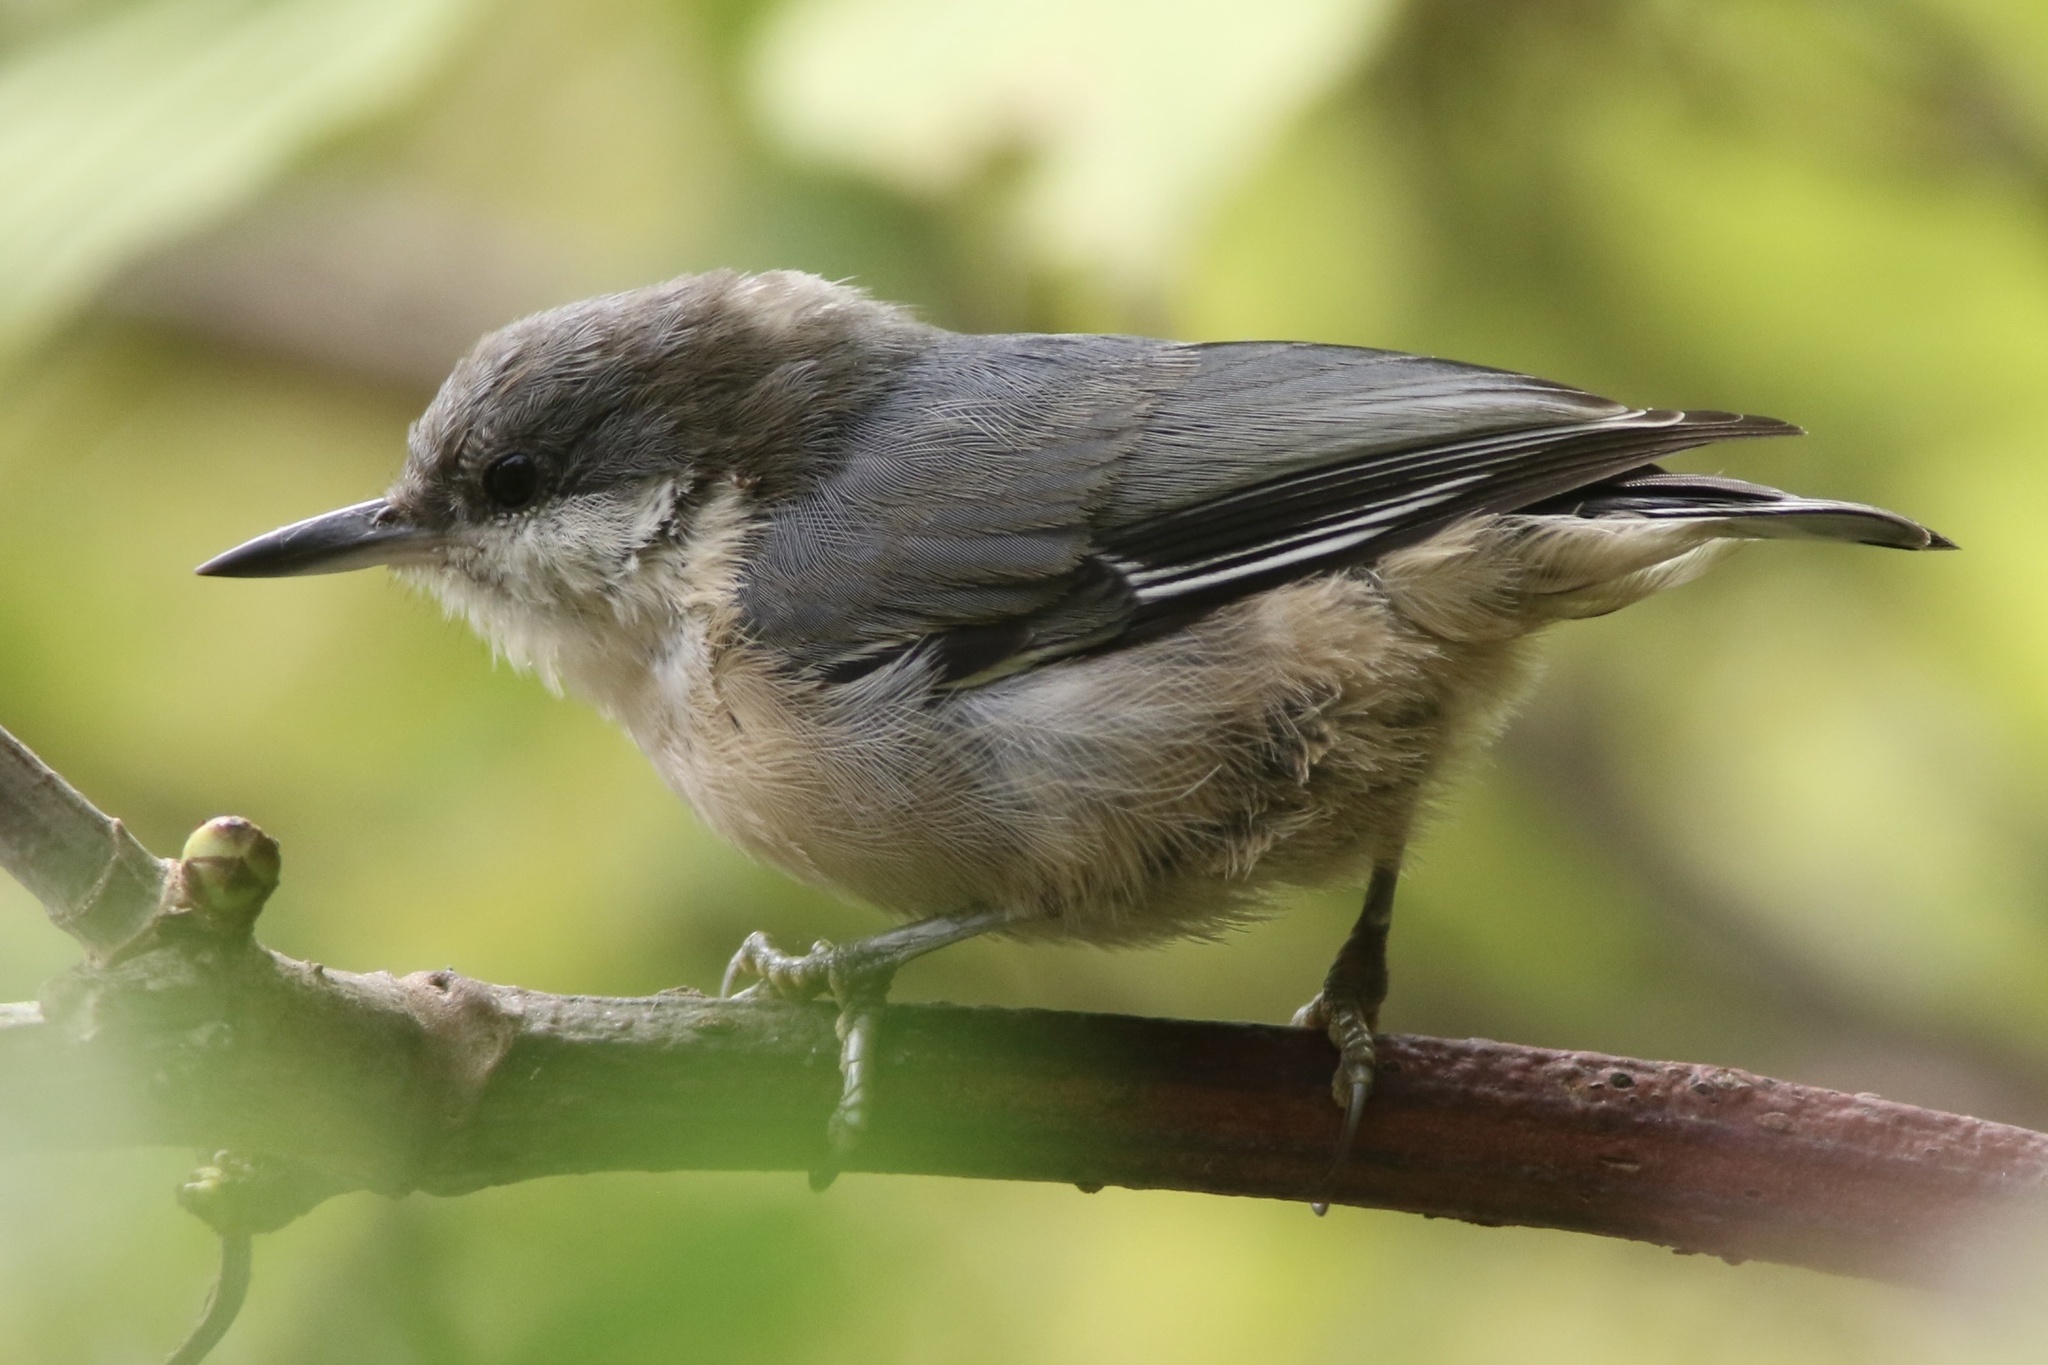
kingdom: Animalia
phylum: Chordata
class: Aves
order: Passeriformes
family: Sittidae
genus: Sitta
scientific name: Sitta pygmaea
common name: Pygmy nuthatch
